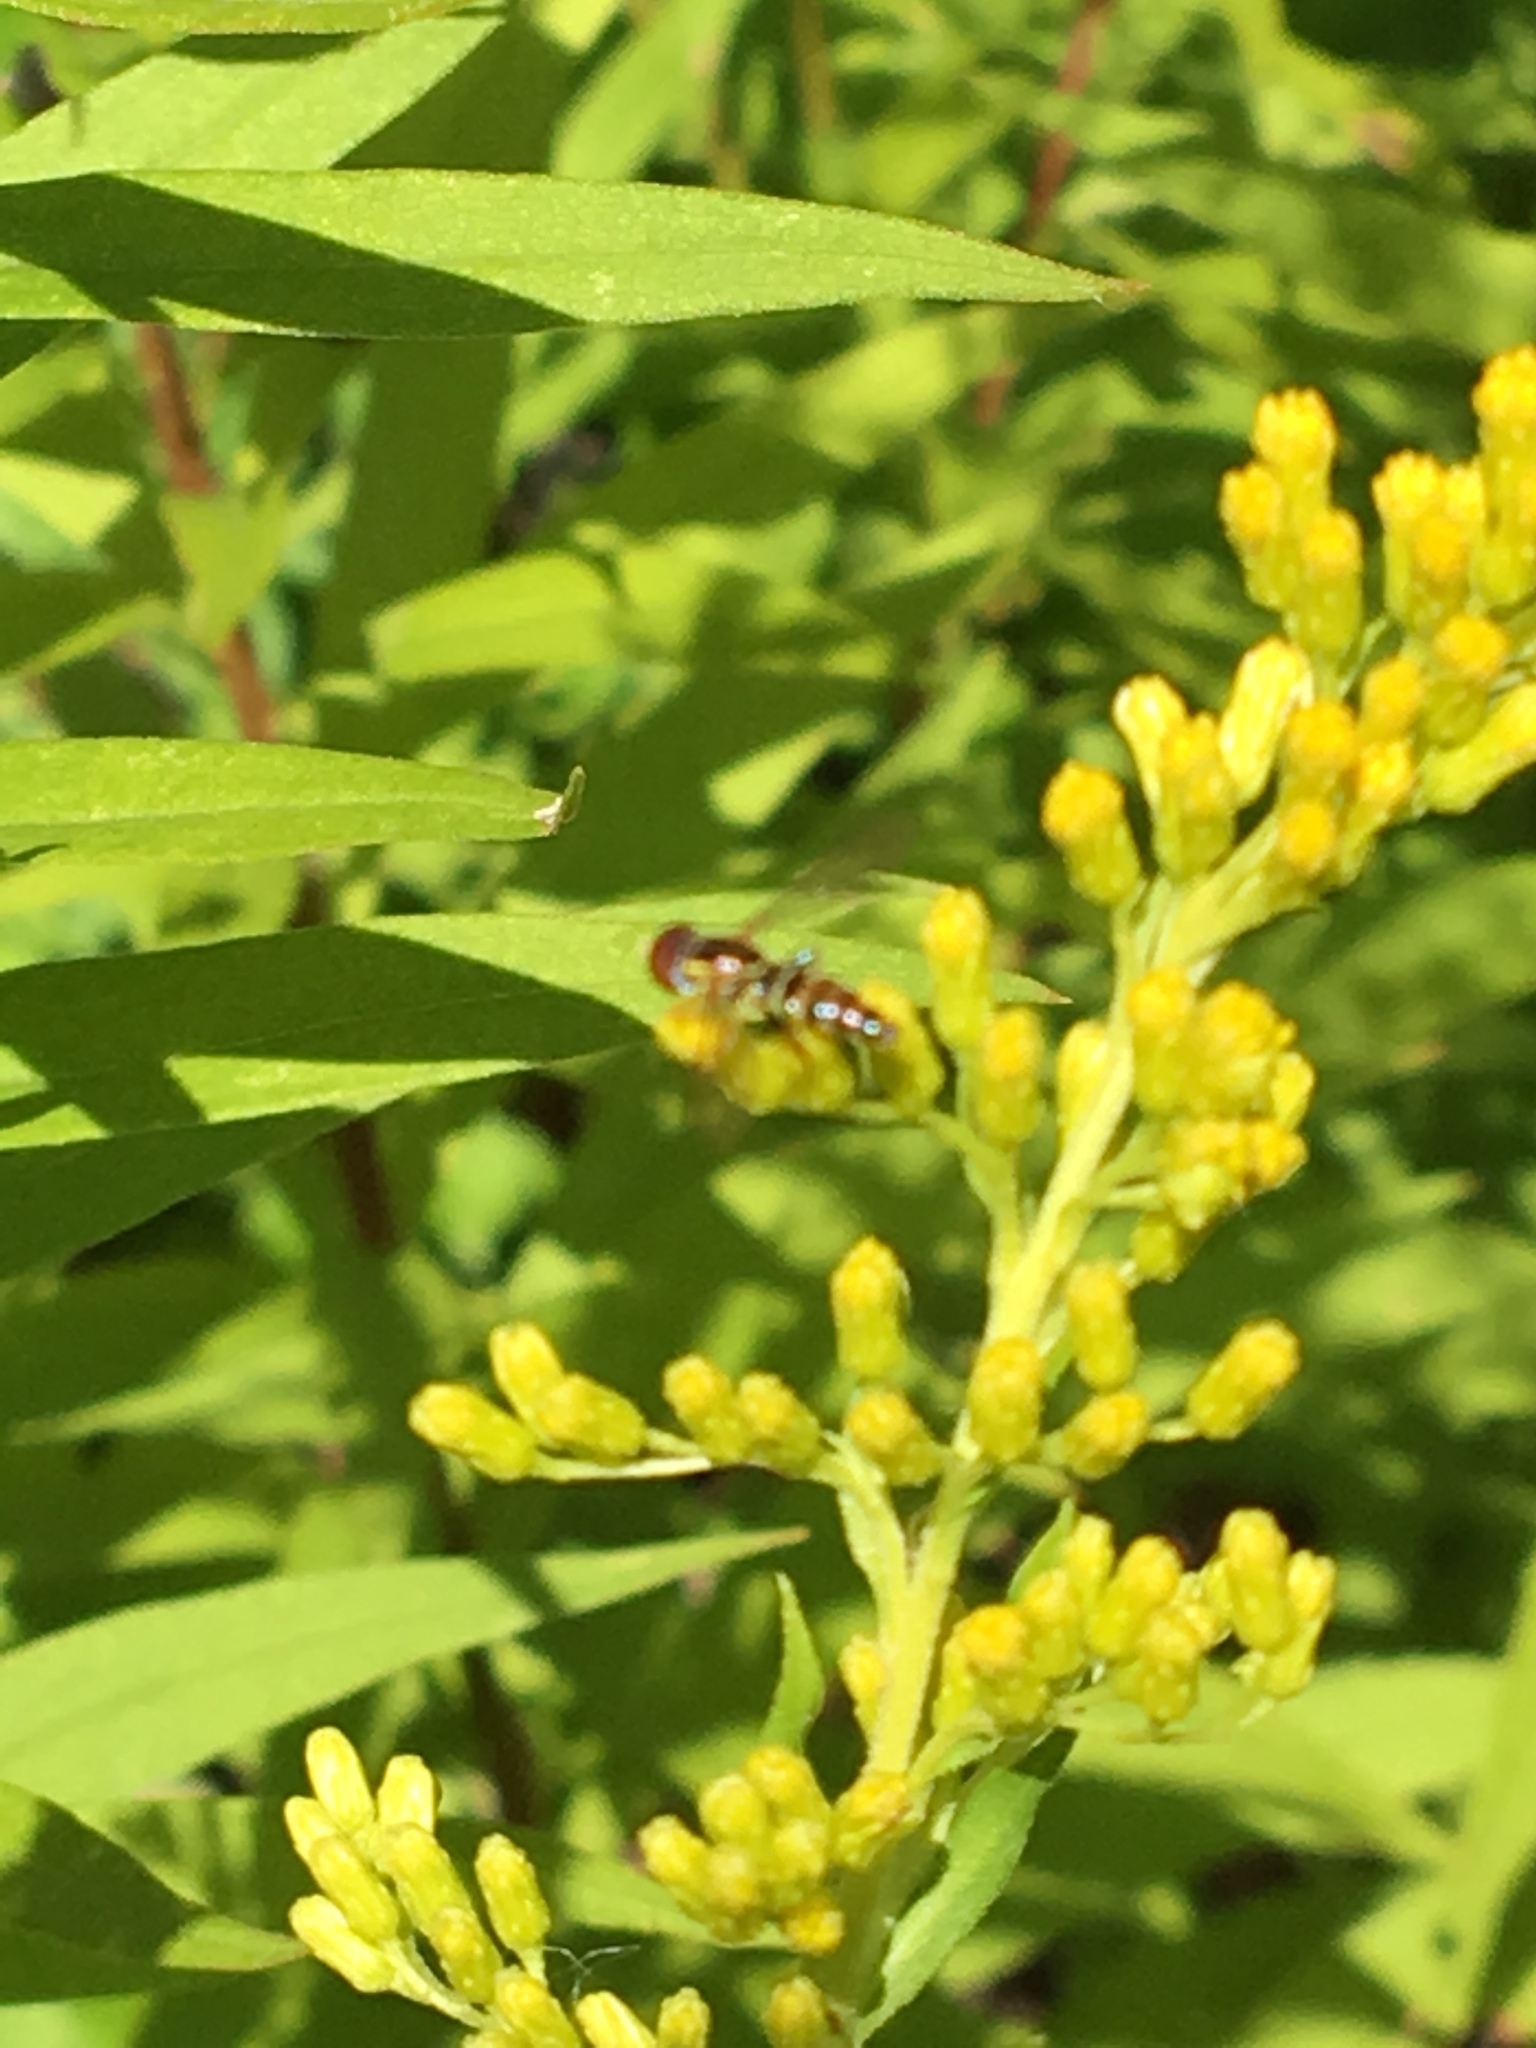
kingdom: Animalia
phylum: Arthropoda
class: Insecta
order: Diptera
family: Syrphidae
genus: Toxomerus
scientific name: Toxomerus geminatus
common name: Eastern calligrapher
